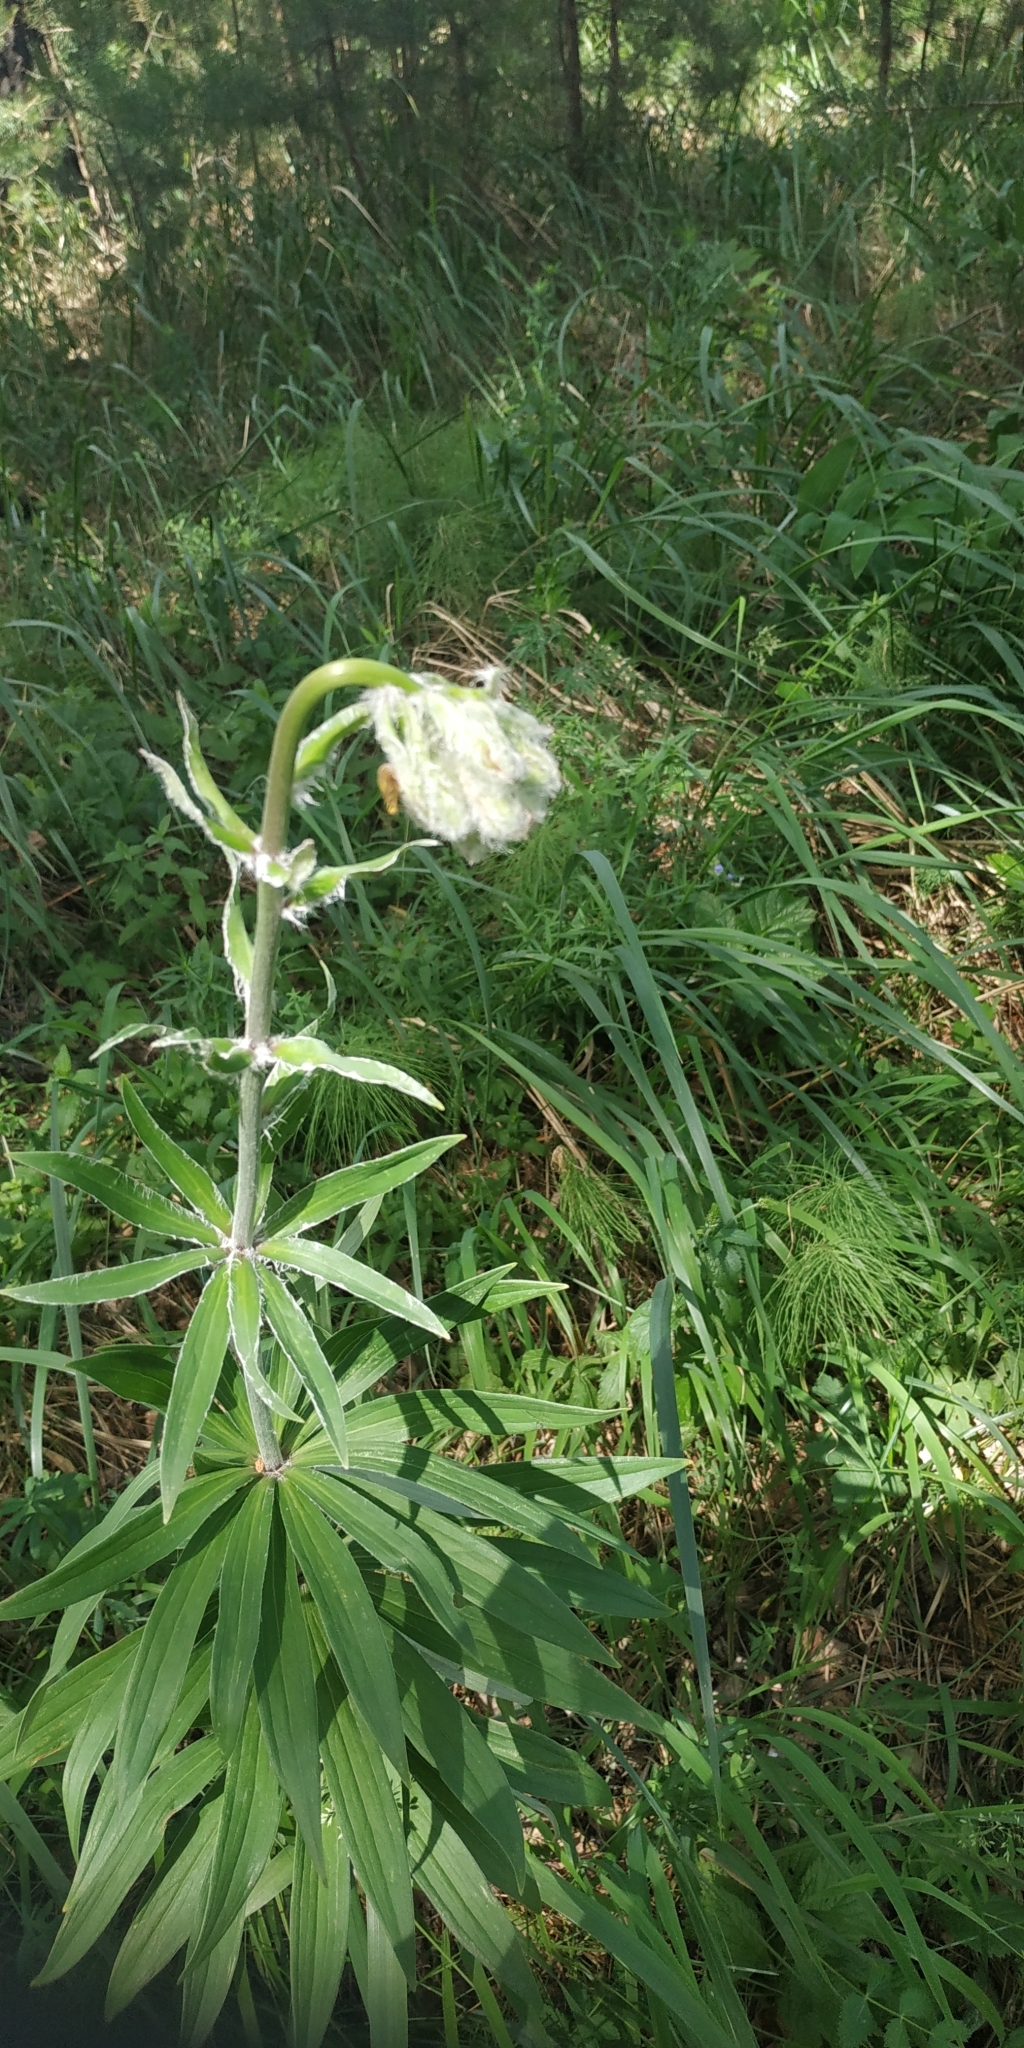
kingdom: Plantae
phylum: Tracheophyta
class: Liliopsida
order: Liliales
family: Liliaceae
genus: Lilium
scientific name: Lilium martagon
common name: Martagon lily
